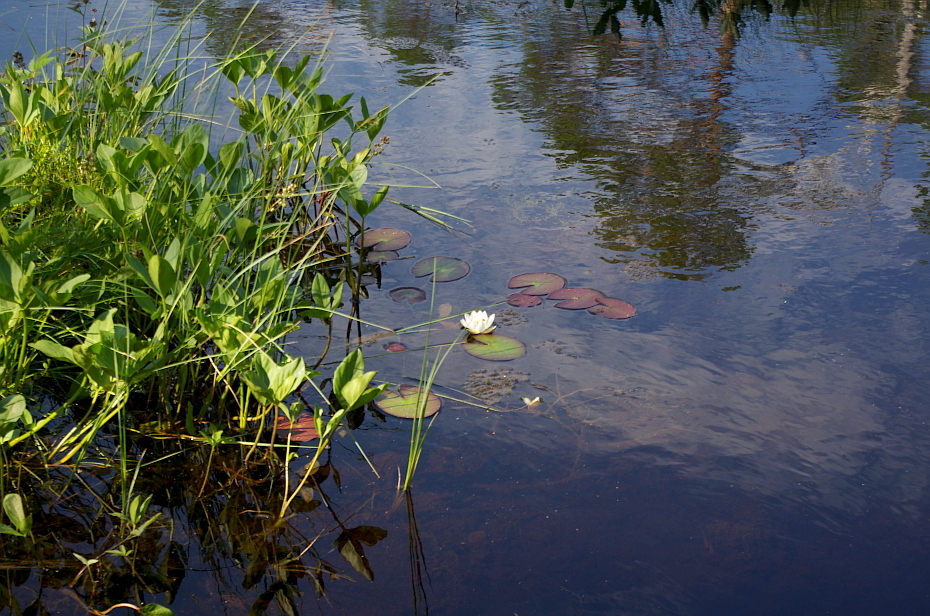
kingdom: Plantae
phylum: Tracheophyta
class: Magnoliopsida
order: Asterales
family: Menyanthaceae
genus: Menyanthes
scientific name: Menyanthes trifoliata
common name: Bogbean
